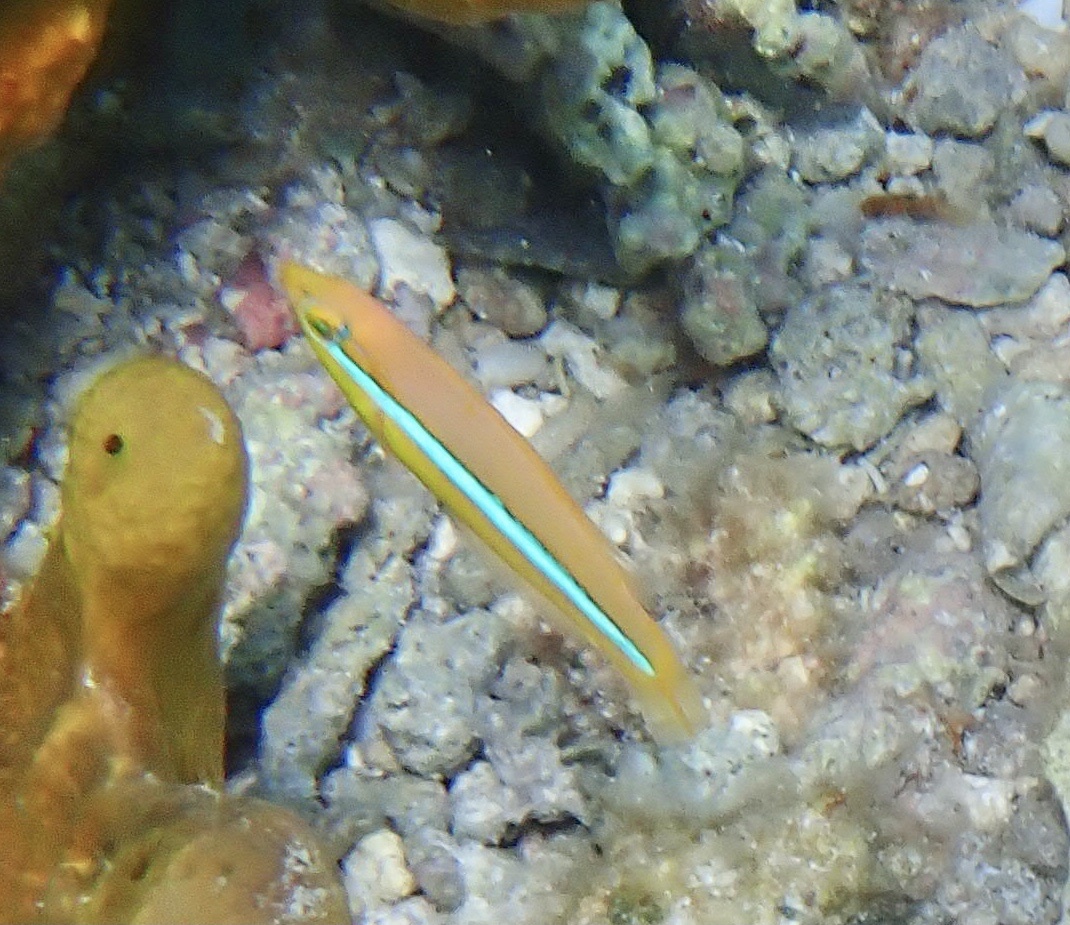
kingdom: Animalia
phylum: Chordata
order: Perciformes
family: Labridae
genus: Halichoeres
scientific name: Halichoeres garnoti
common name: Yellowhead wrasse
